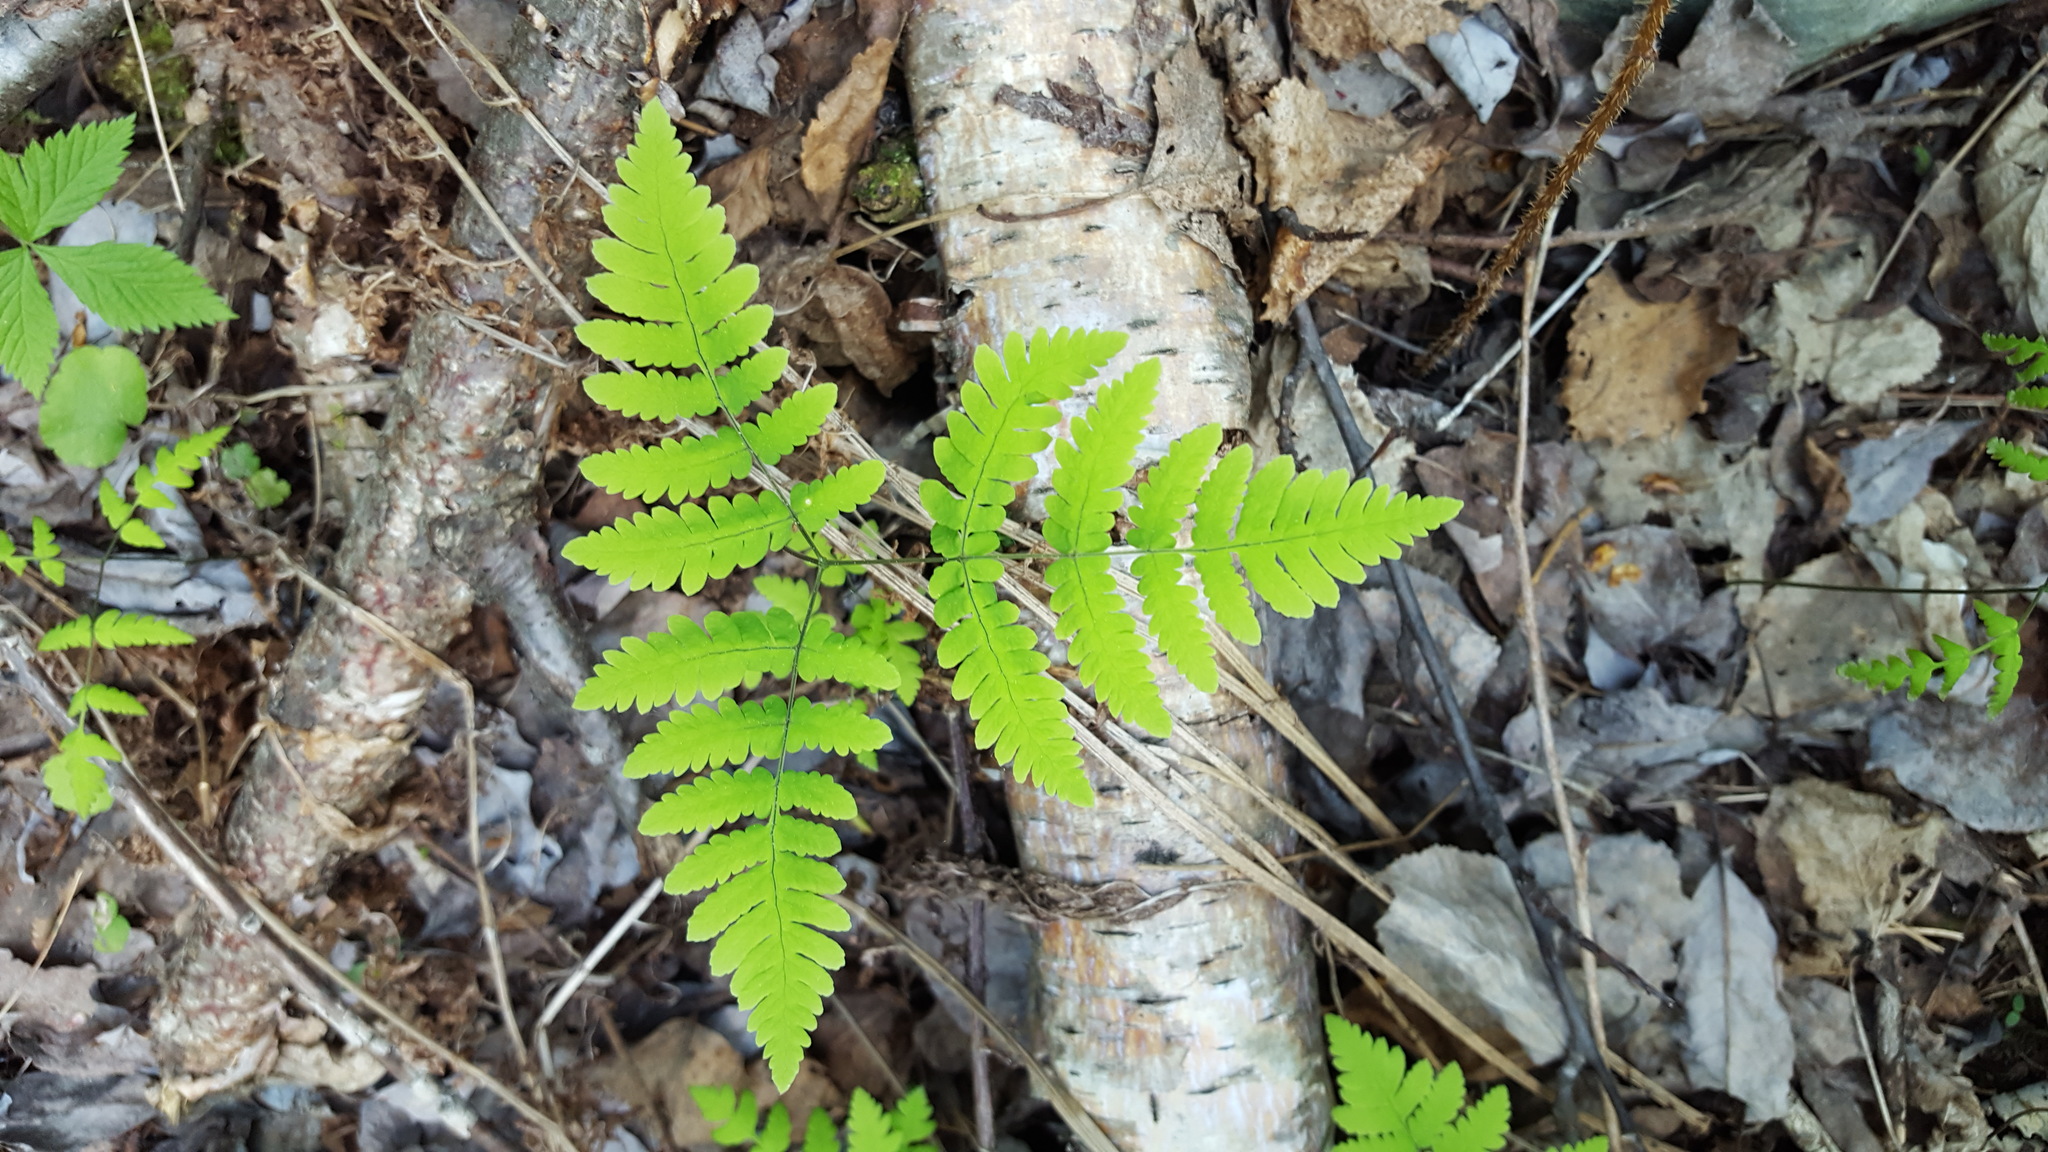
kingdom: Plantae
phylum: Tracheophyta
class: Polypodiopsida
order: Polypodiales
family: Cystopteridaceae
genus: Gymnocarpium
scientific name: Gymnocarpium dryopteris
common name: Oak fern
